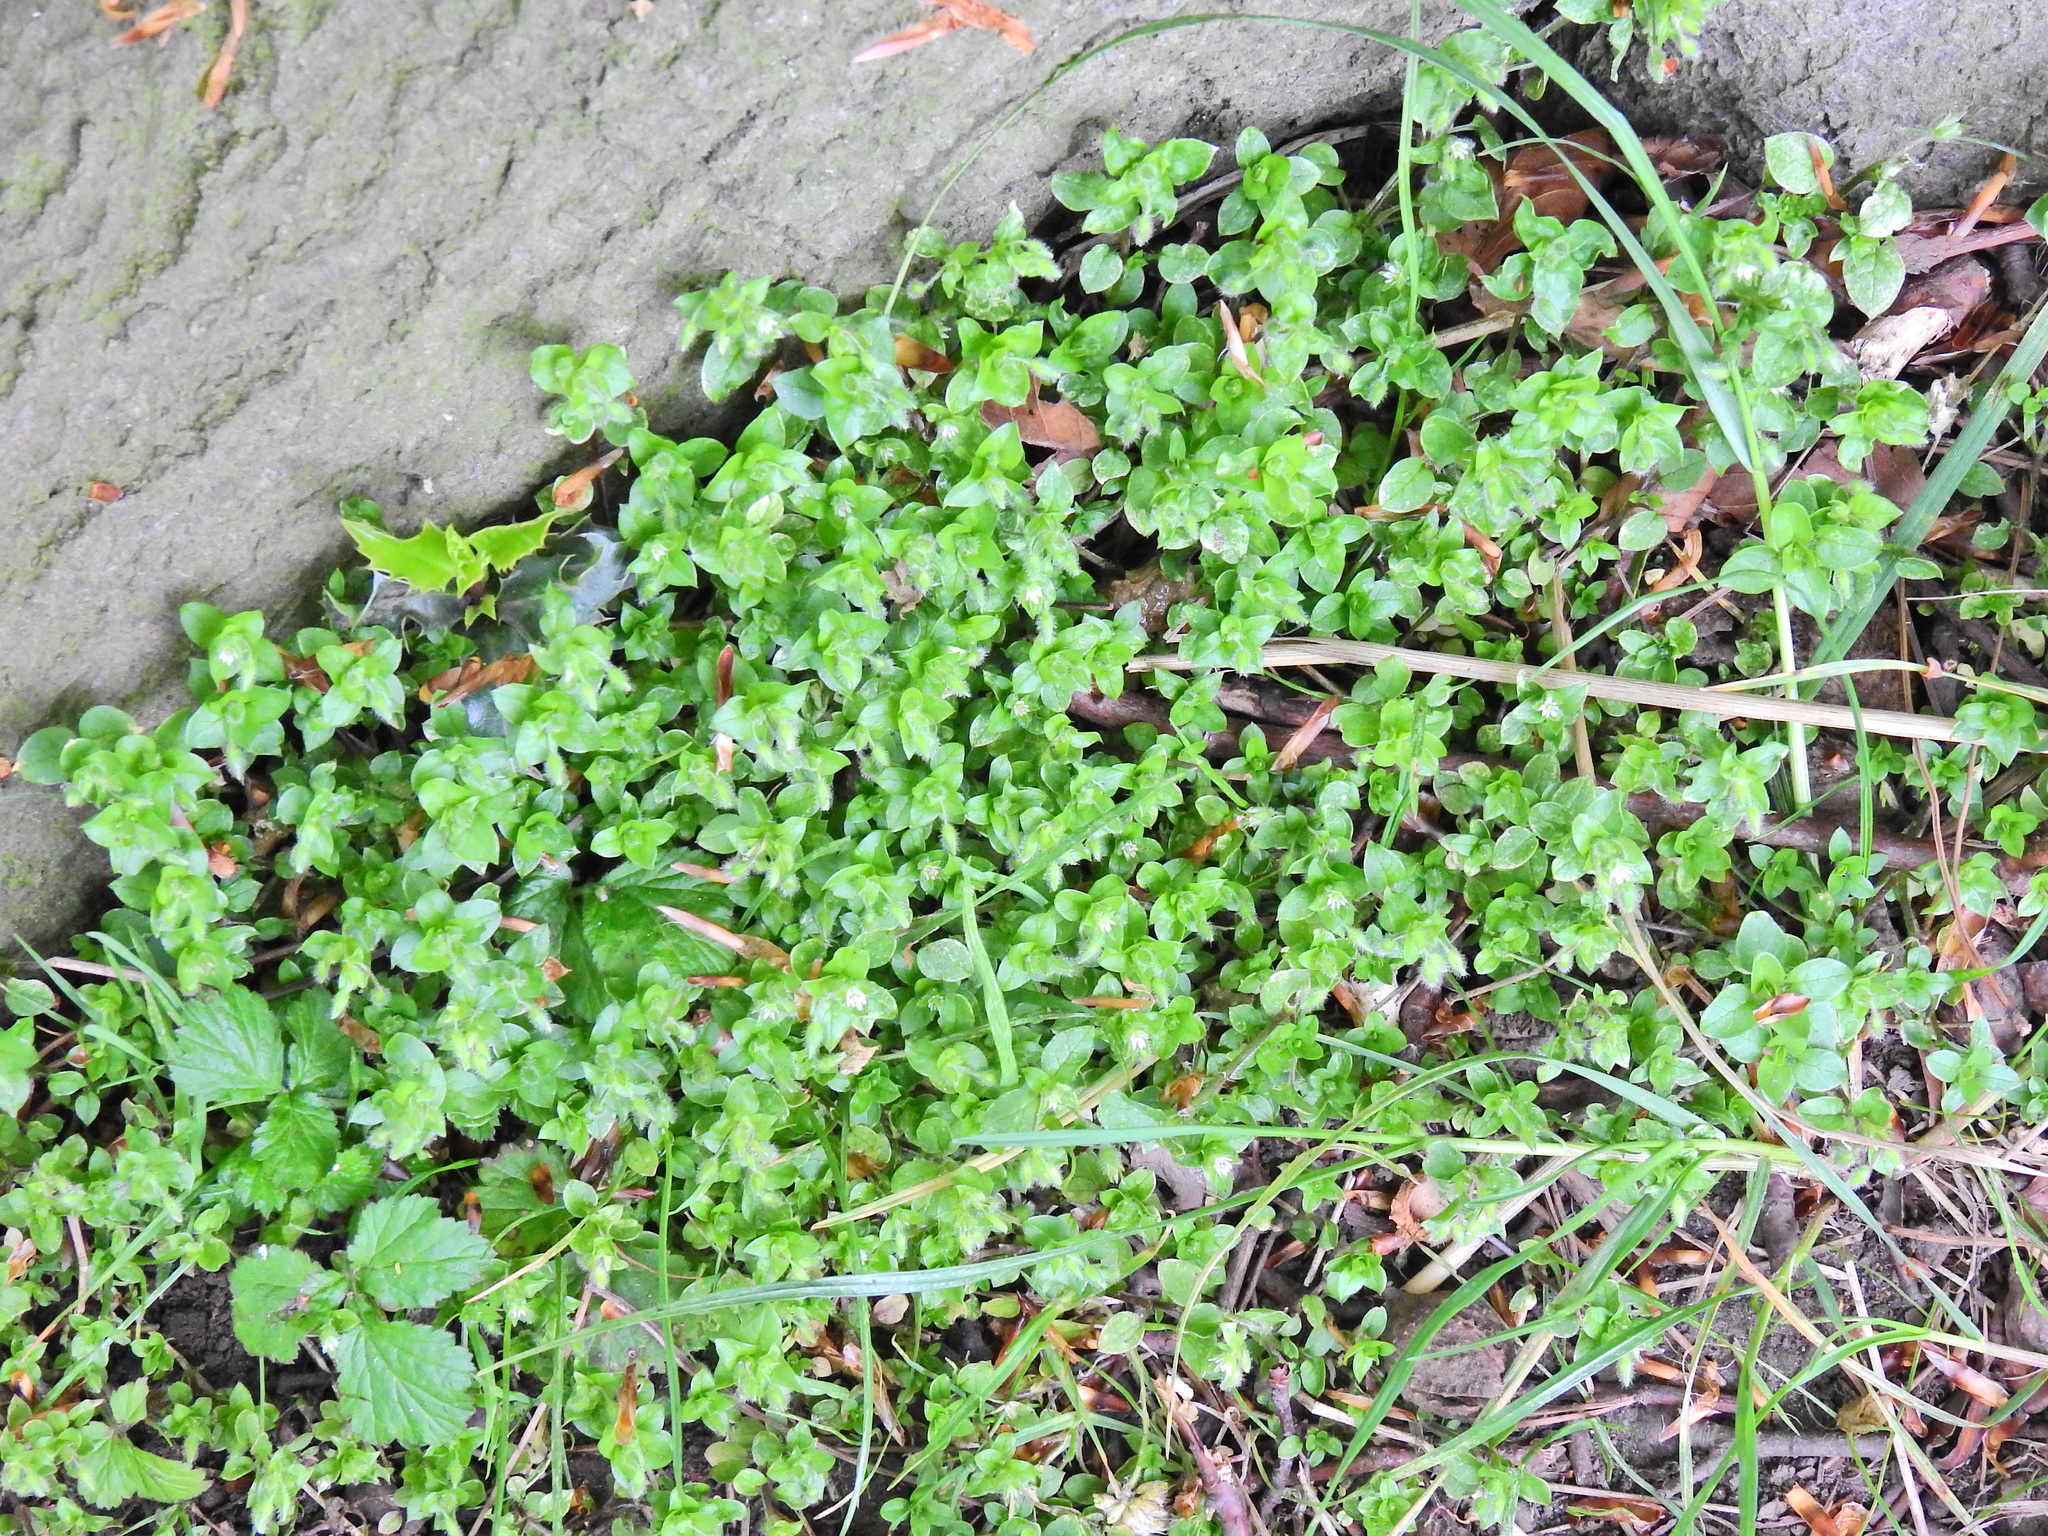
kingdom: Plantae
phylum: Tracheophyta
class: Magnoliopsida
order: Rosales
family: Urticaceae
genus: Soleirolia
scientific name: Soleirolia soleirolii
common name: Mind-your-own-business
